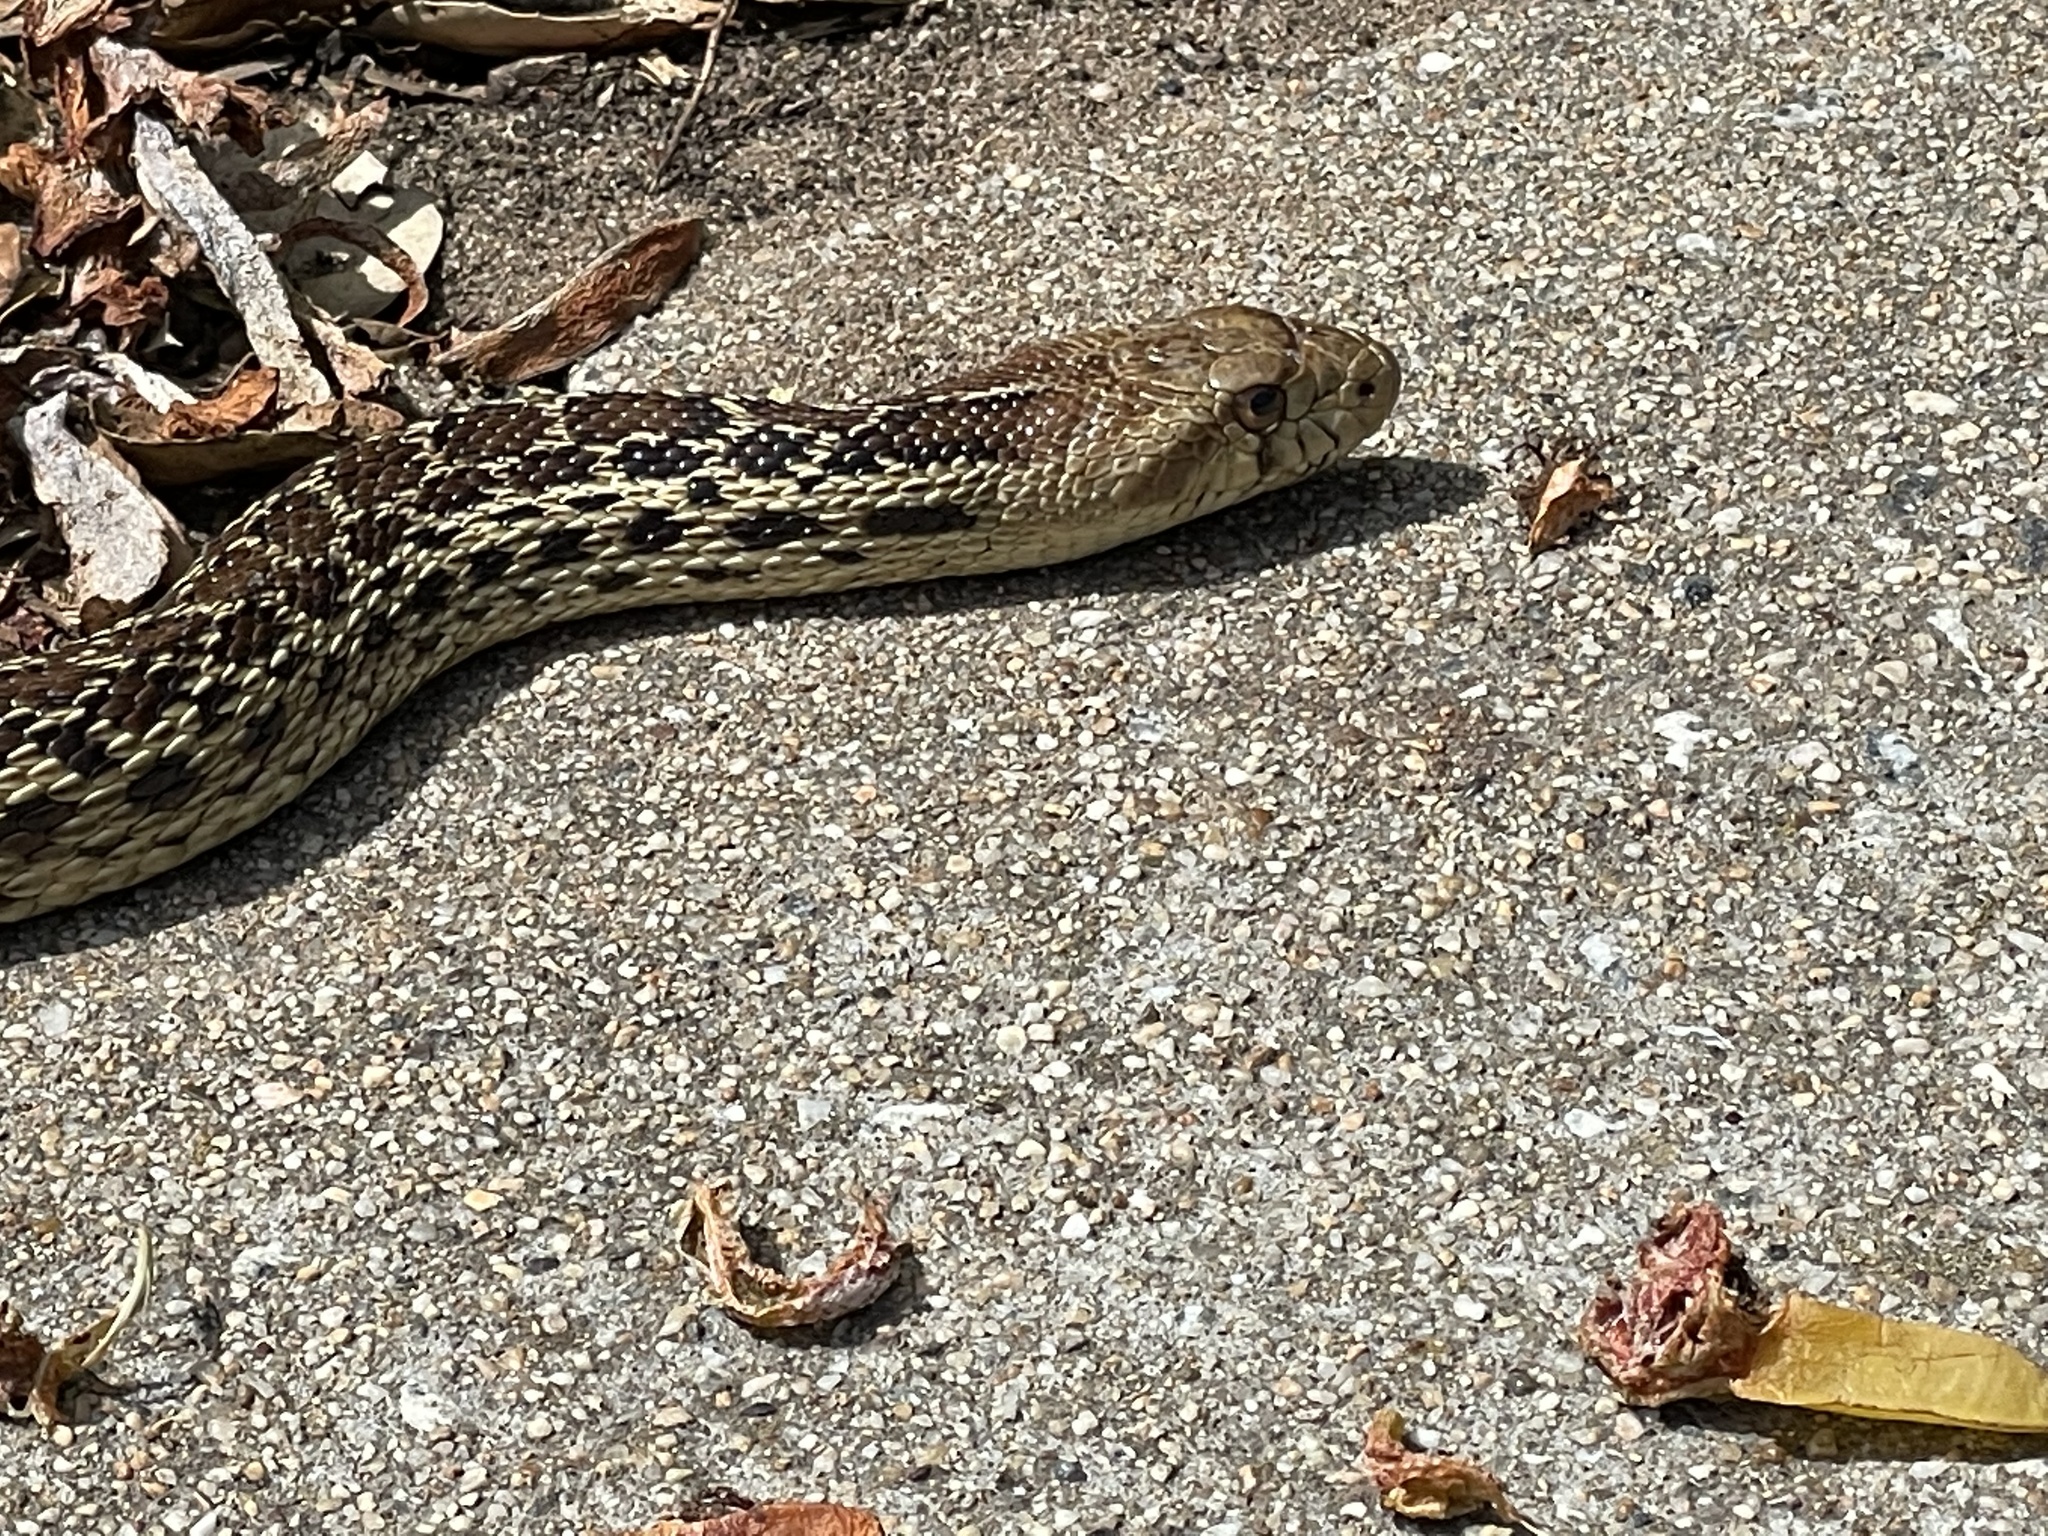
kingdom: Animalia
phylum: Chordata
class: Squamata
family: Colubridae
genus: Pituophis
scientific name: Pituophis catenifer
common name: Gopher snake
